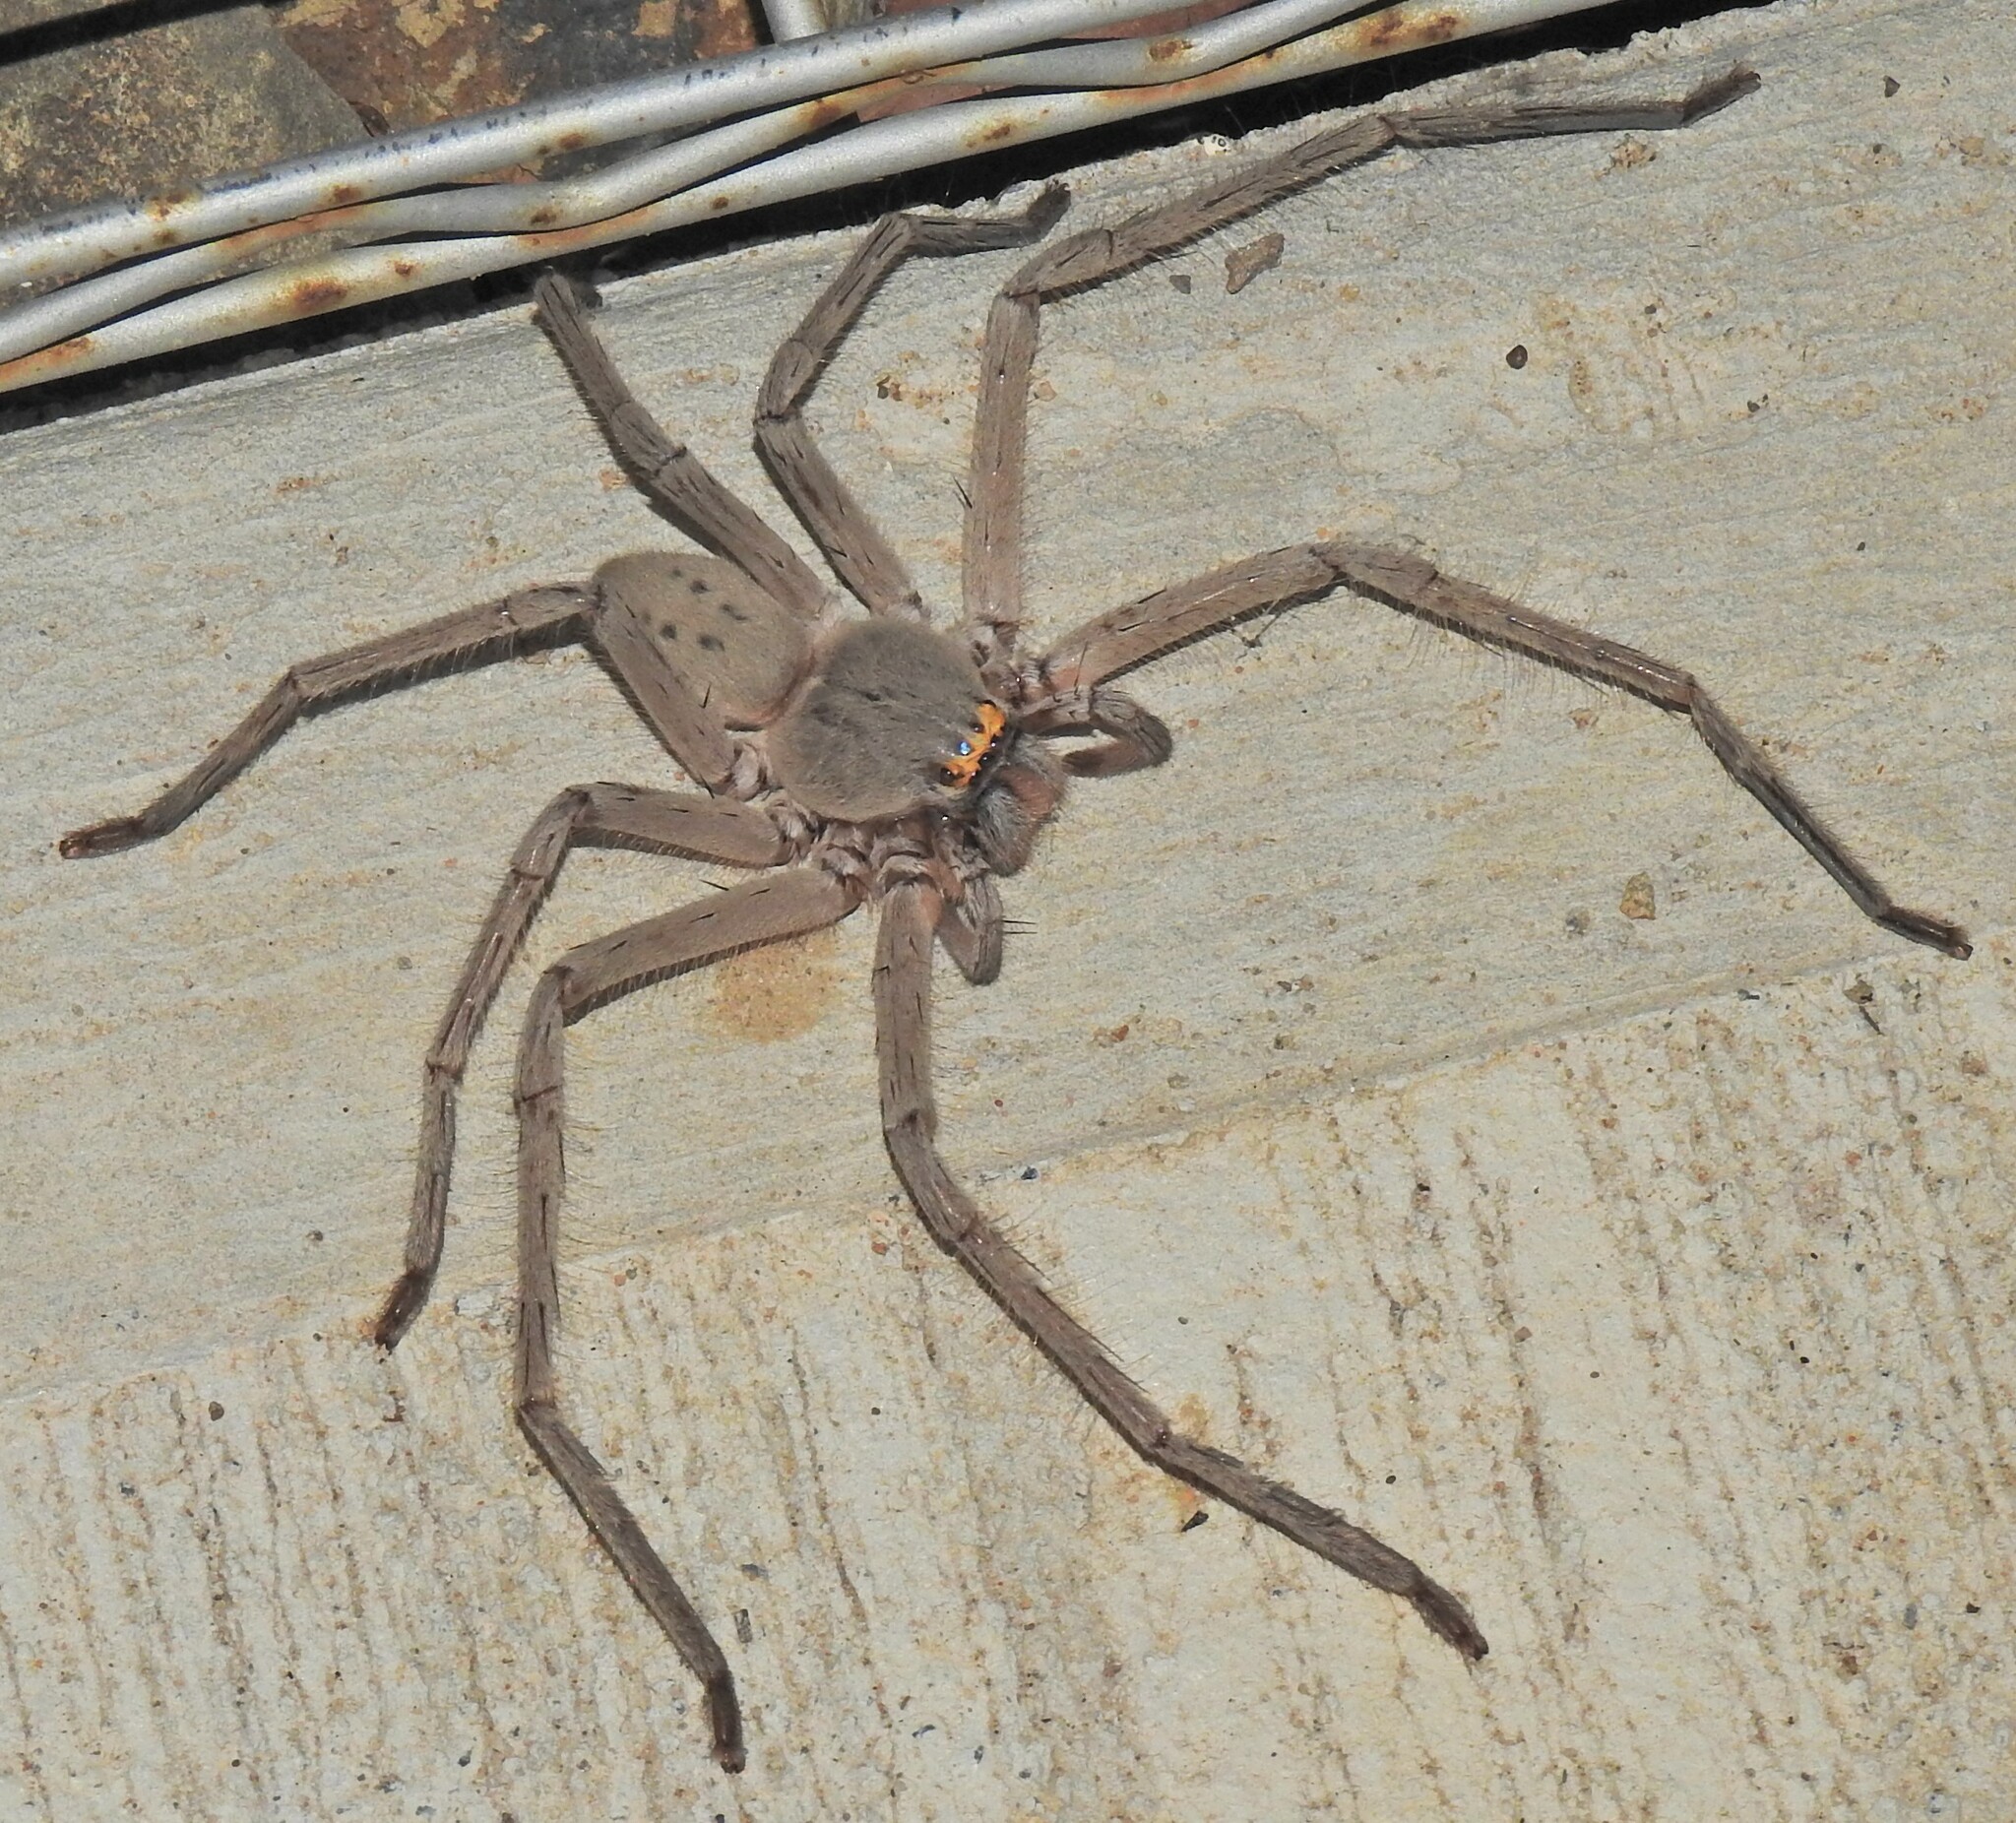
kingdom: Animalia
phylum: Arthropoda
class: Arachnida
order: Araneae
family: Sparassidae
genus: Typostola
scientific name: Typostola barbata
